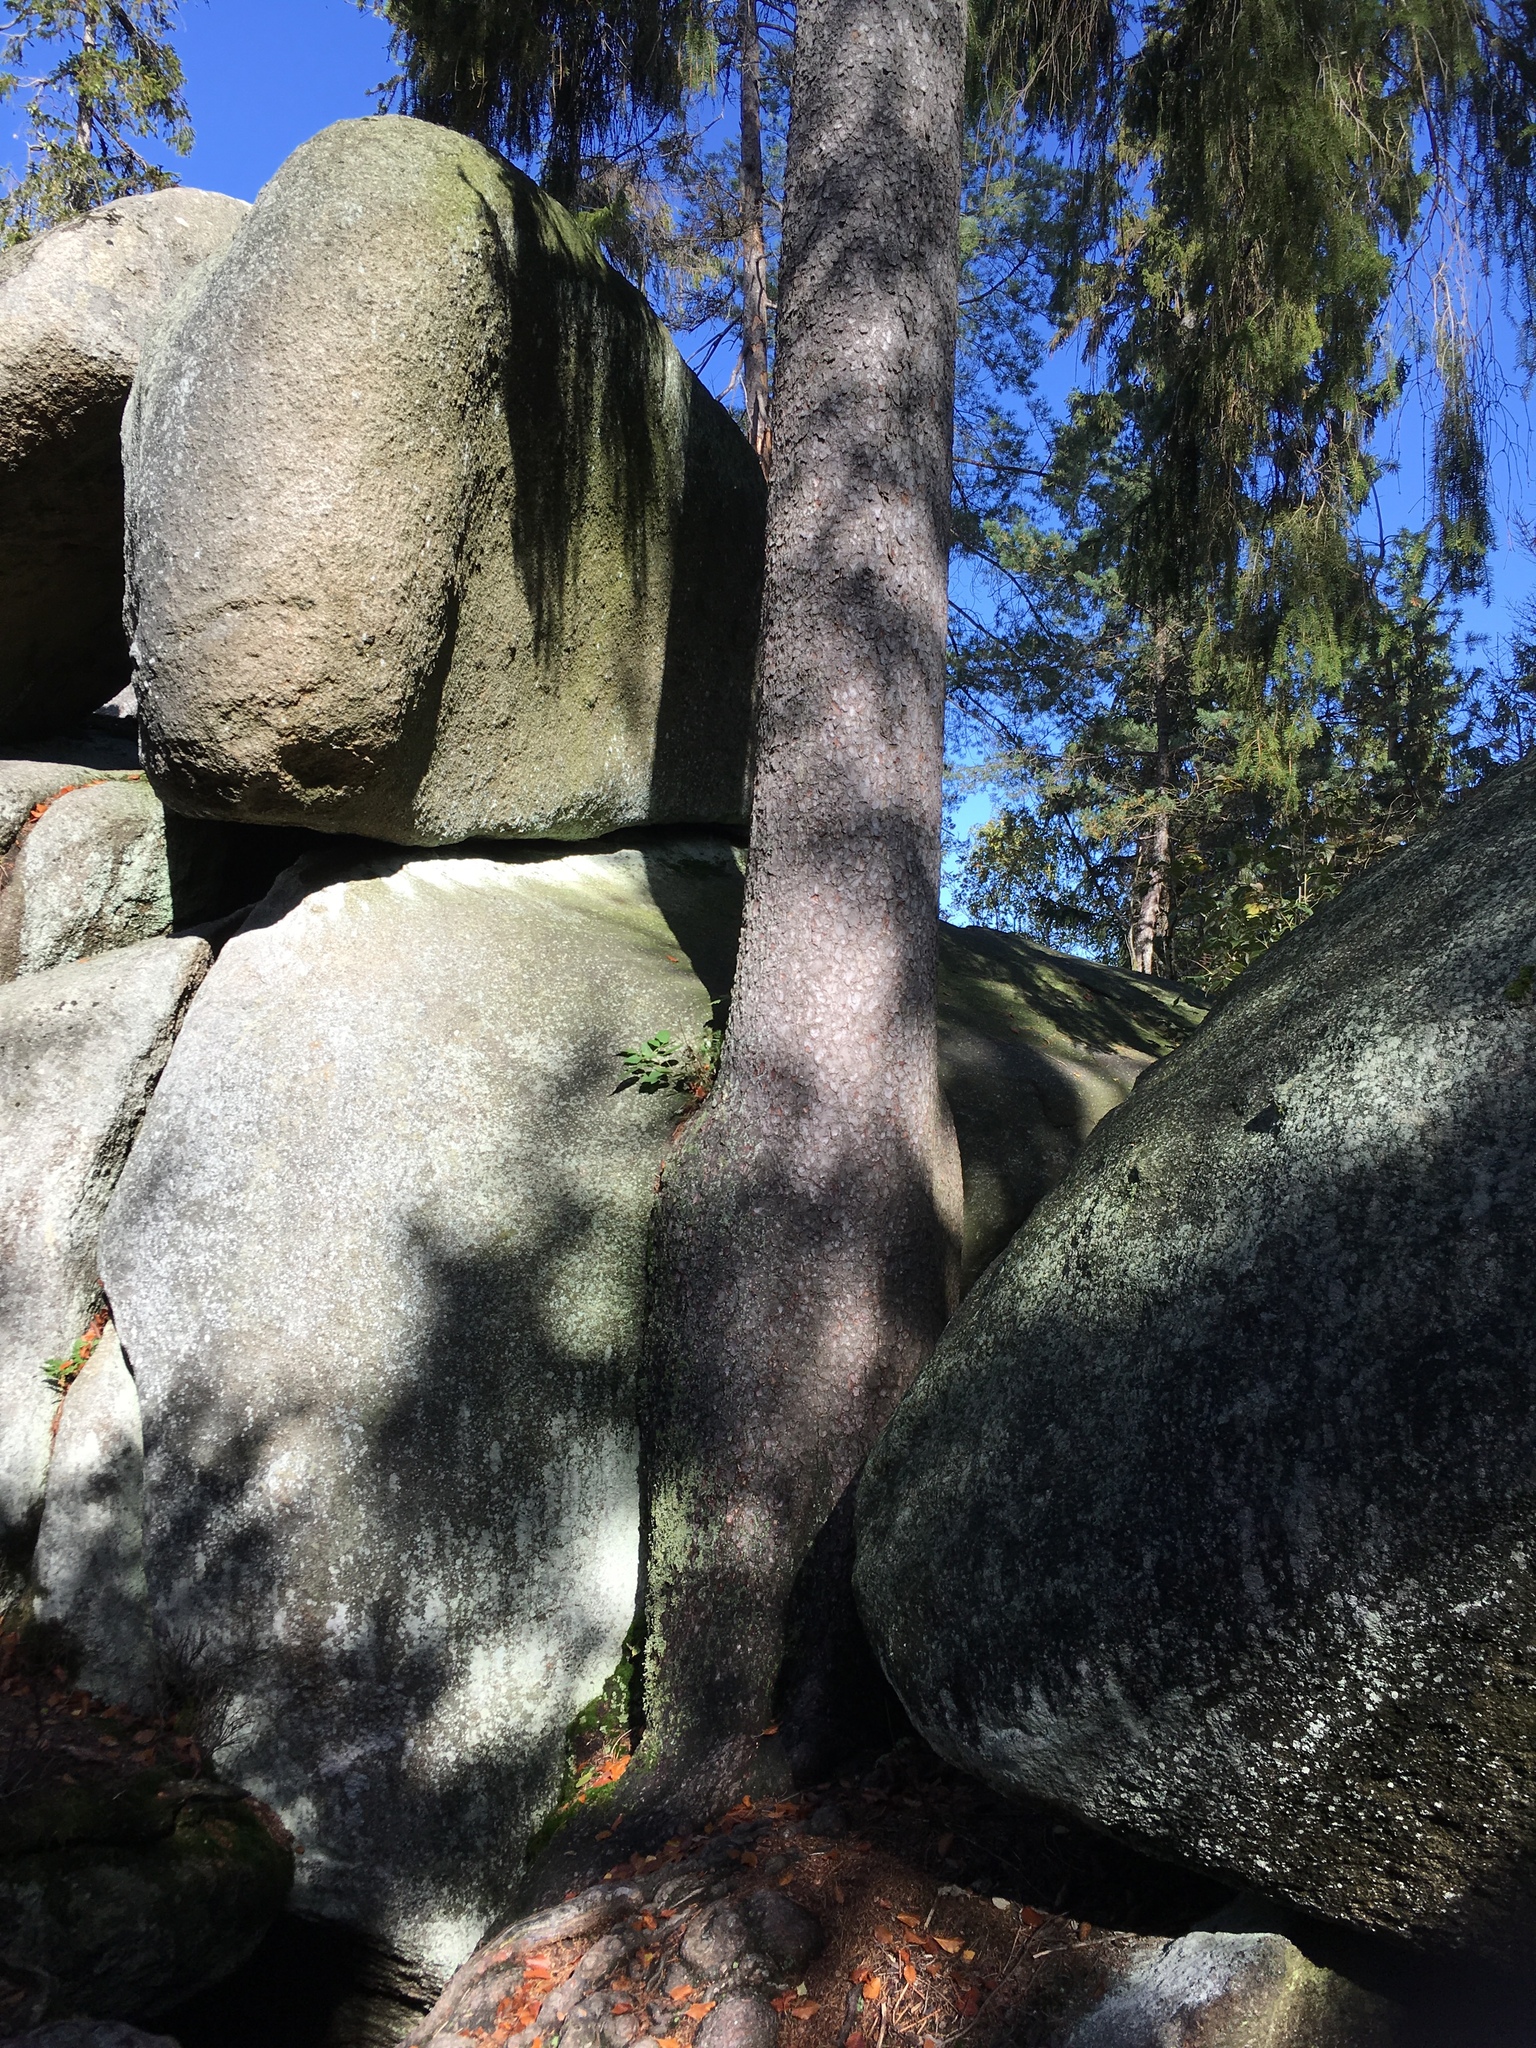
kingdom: Plantae
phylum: Tracheophyta
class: Pinopsida
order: Pinales
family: Pinaceae
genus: Picea
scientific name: Picea abies
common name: Norway spruce
